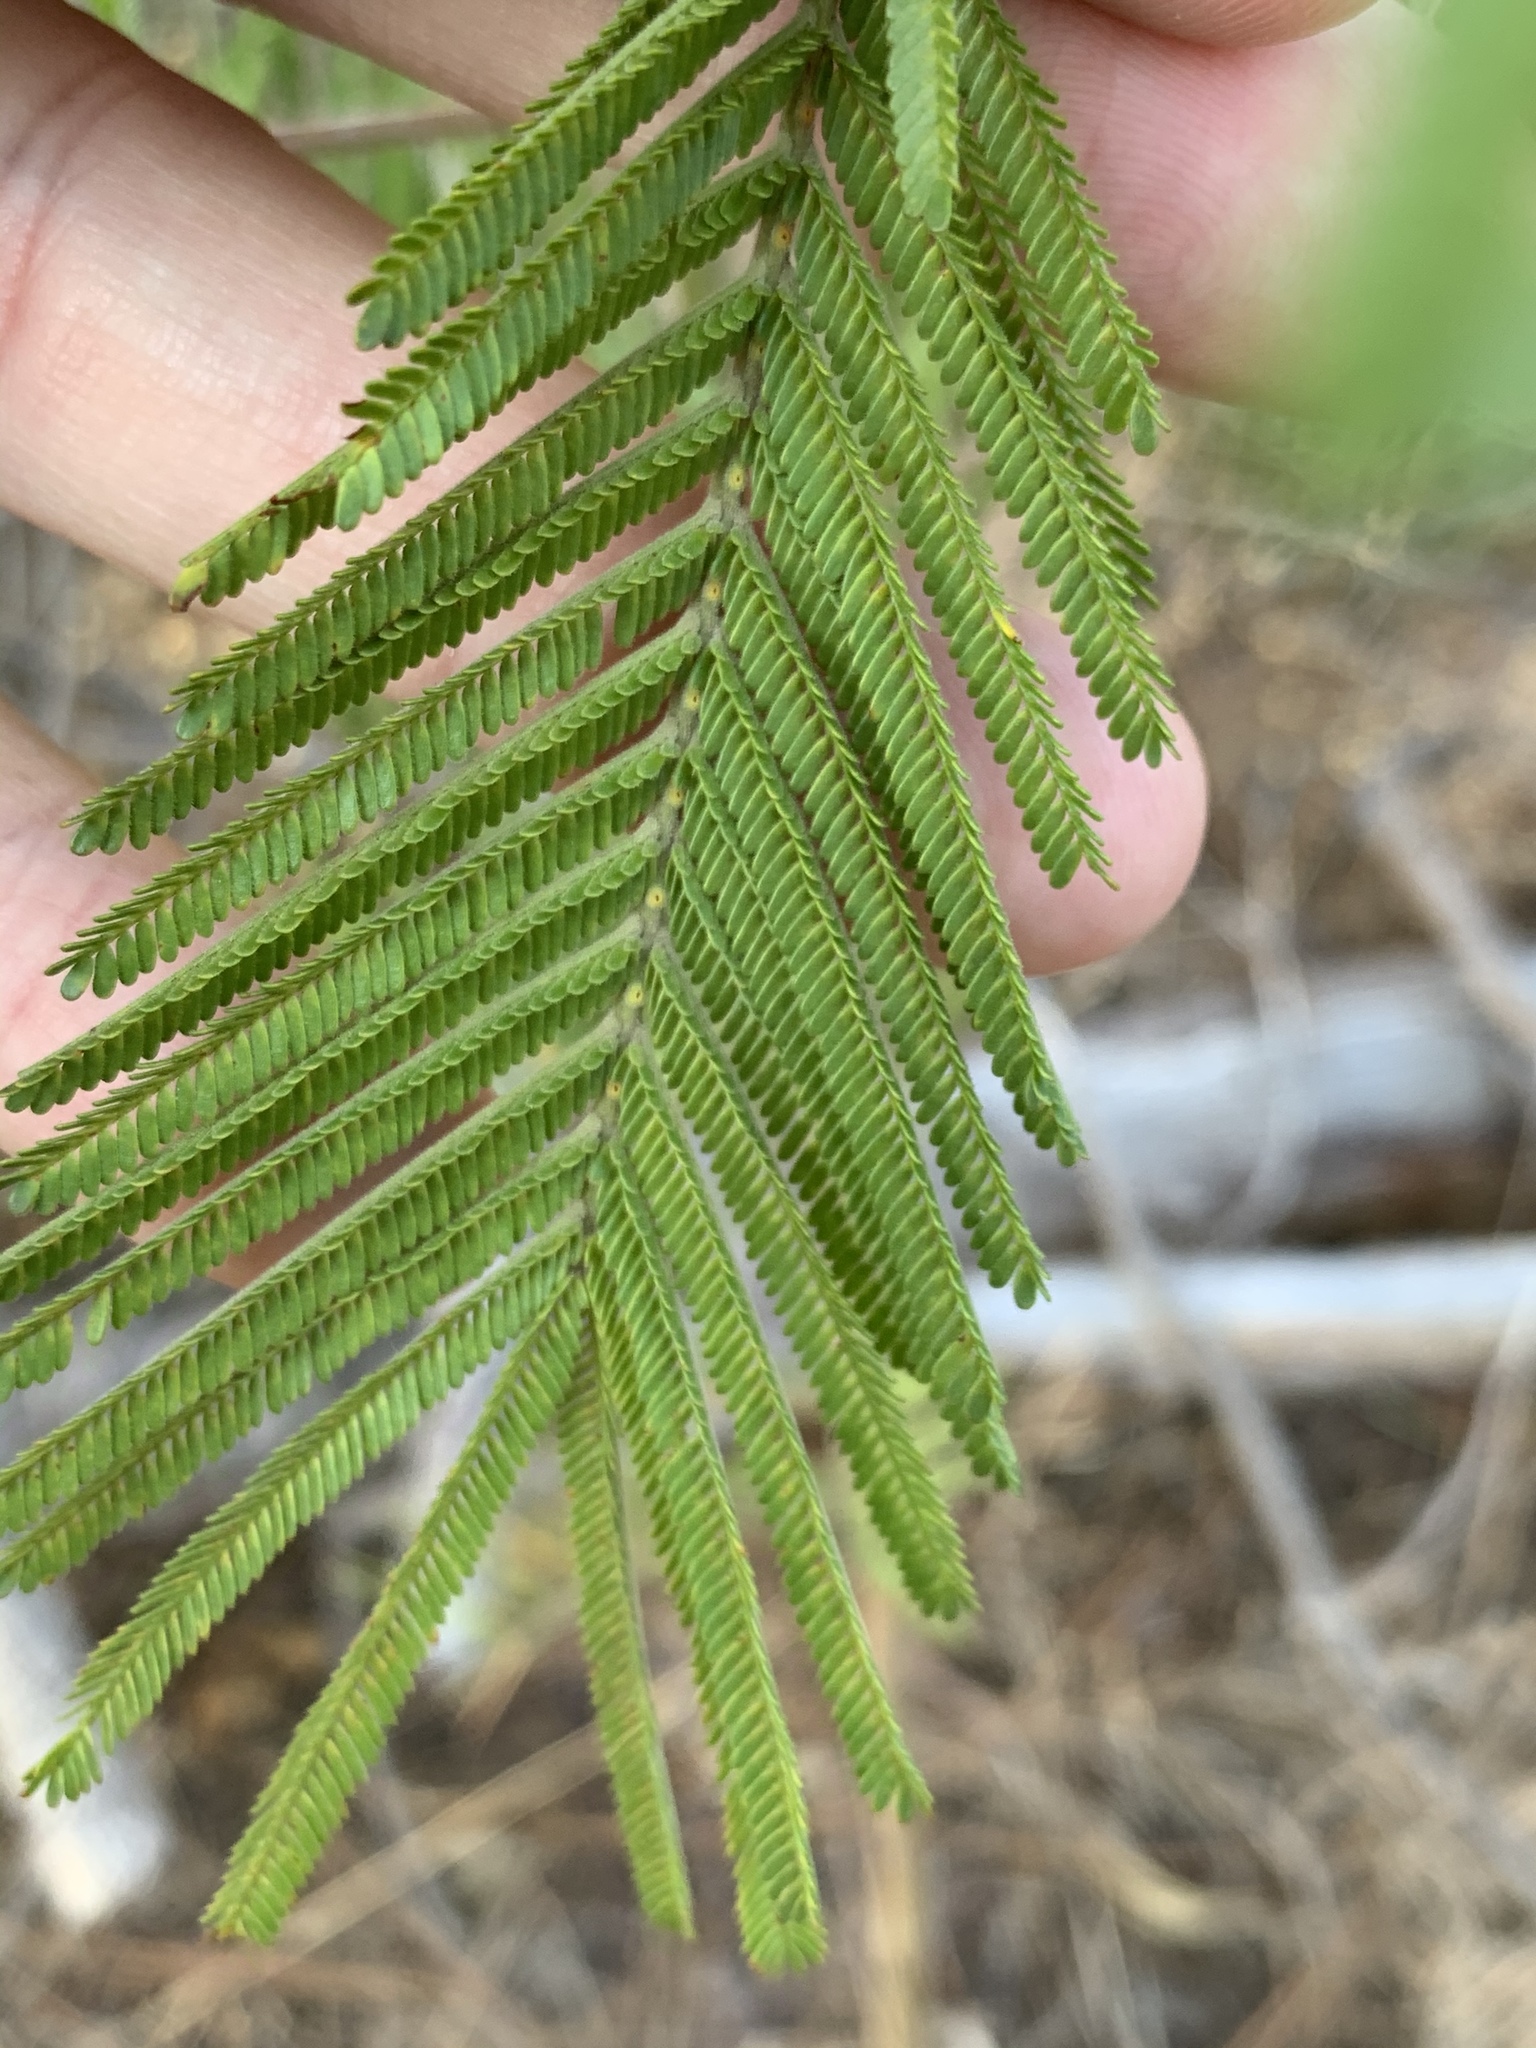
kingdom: Plantae
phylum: Tracheophyta
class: Magnoliopsida
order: Fabales
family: Fabaceae
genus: Acacia
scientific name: Acacia mearnsii
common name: Black wattle
